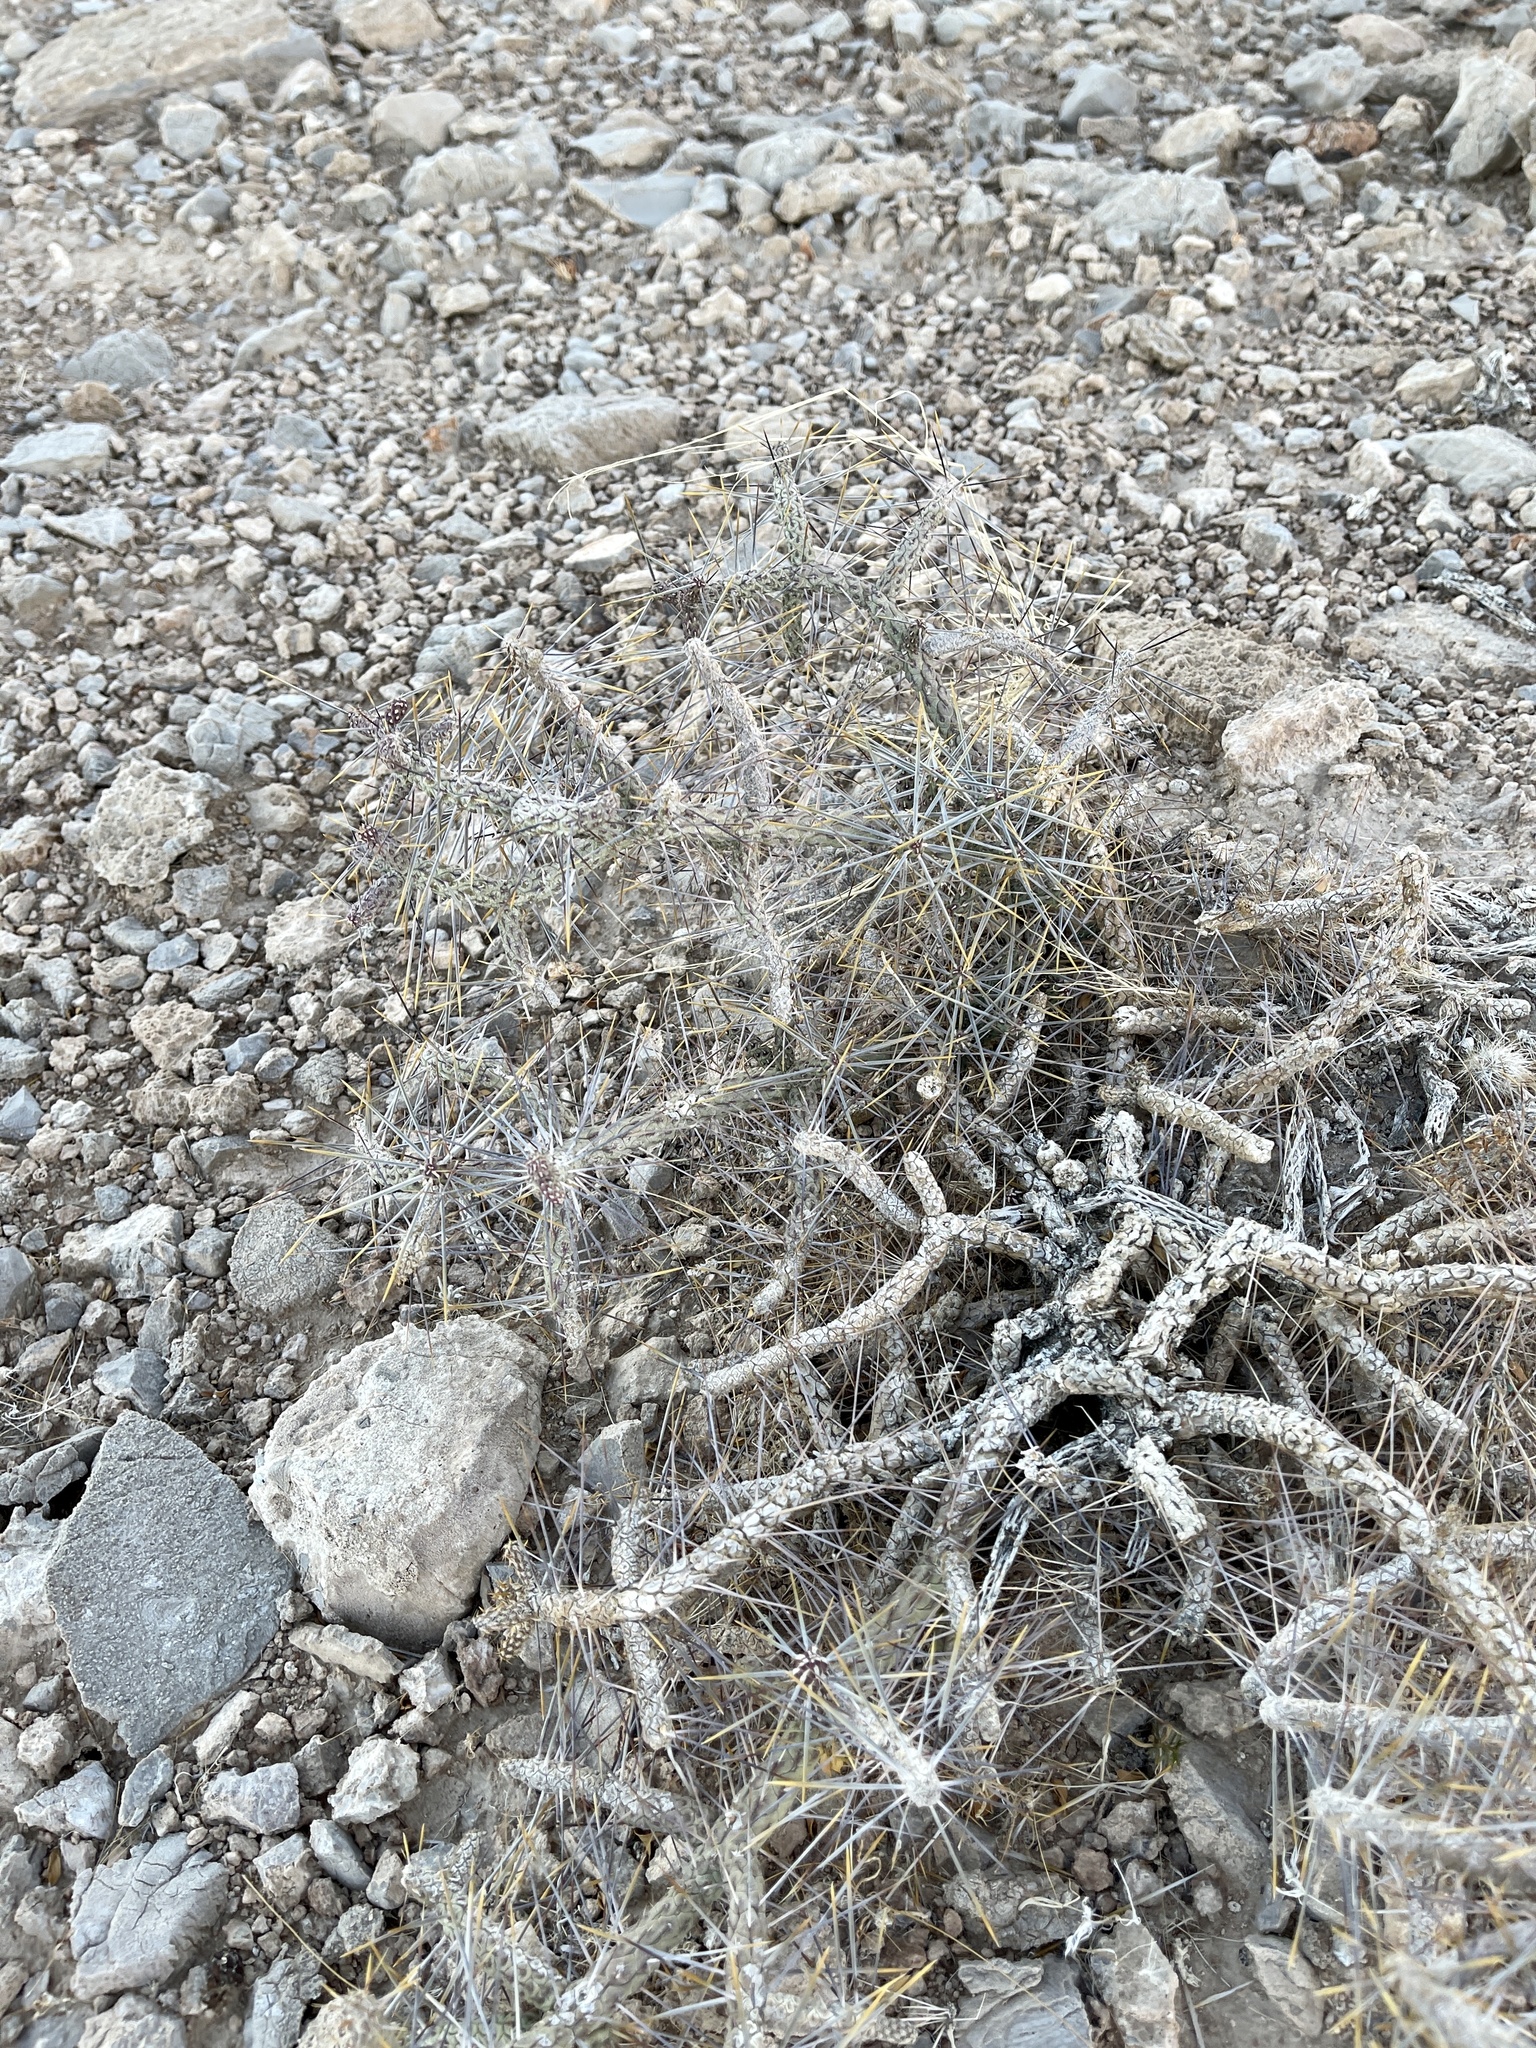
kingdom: Plantae
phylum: Tracheophyta
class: Magnoliopsida
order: Caryophyllales
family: Cactaceae
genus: Cylindropuntia
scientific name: Cylindropuntia ramosissima
